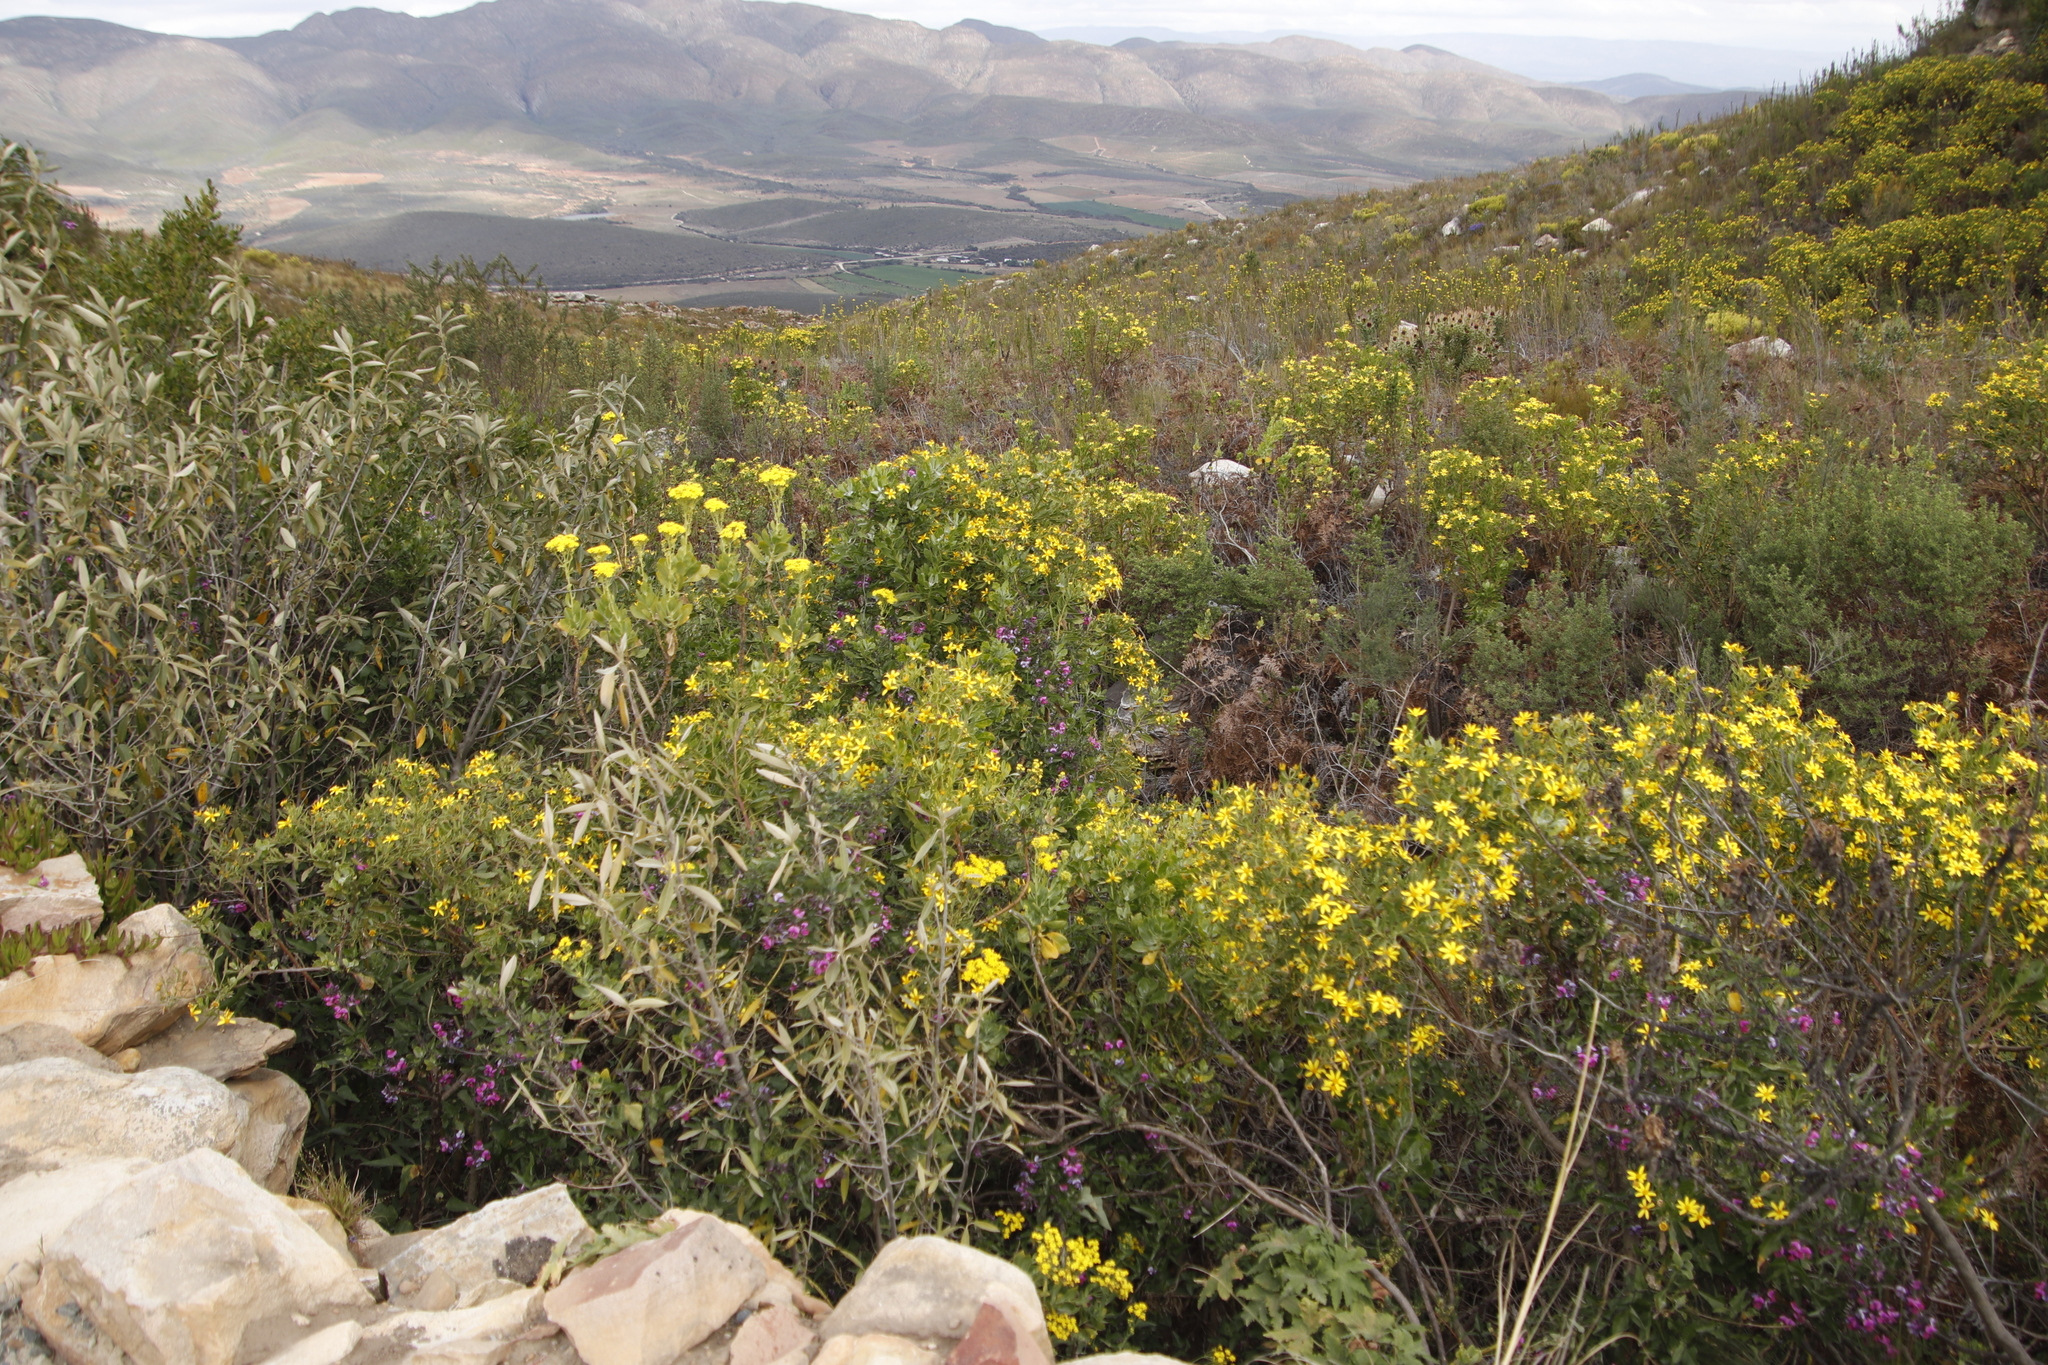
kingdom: Plantae
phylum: Tracheophyta
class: Magnoliopsida
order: Fabales
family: Fabaceae
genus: Dipogon
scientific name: Dipogon lignosus
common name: Okie bean
